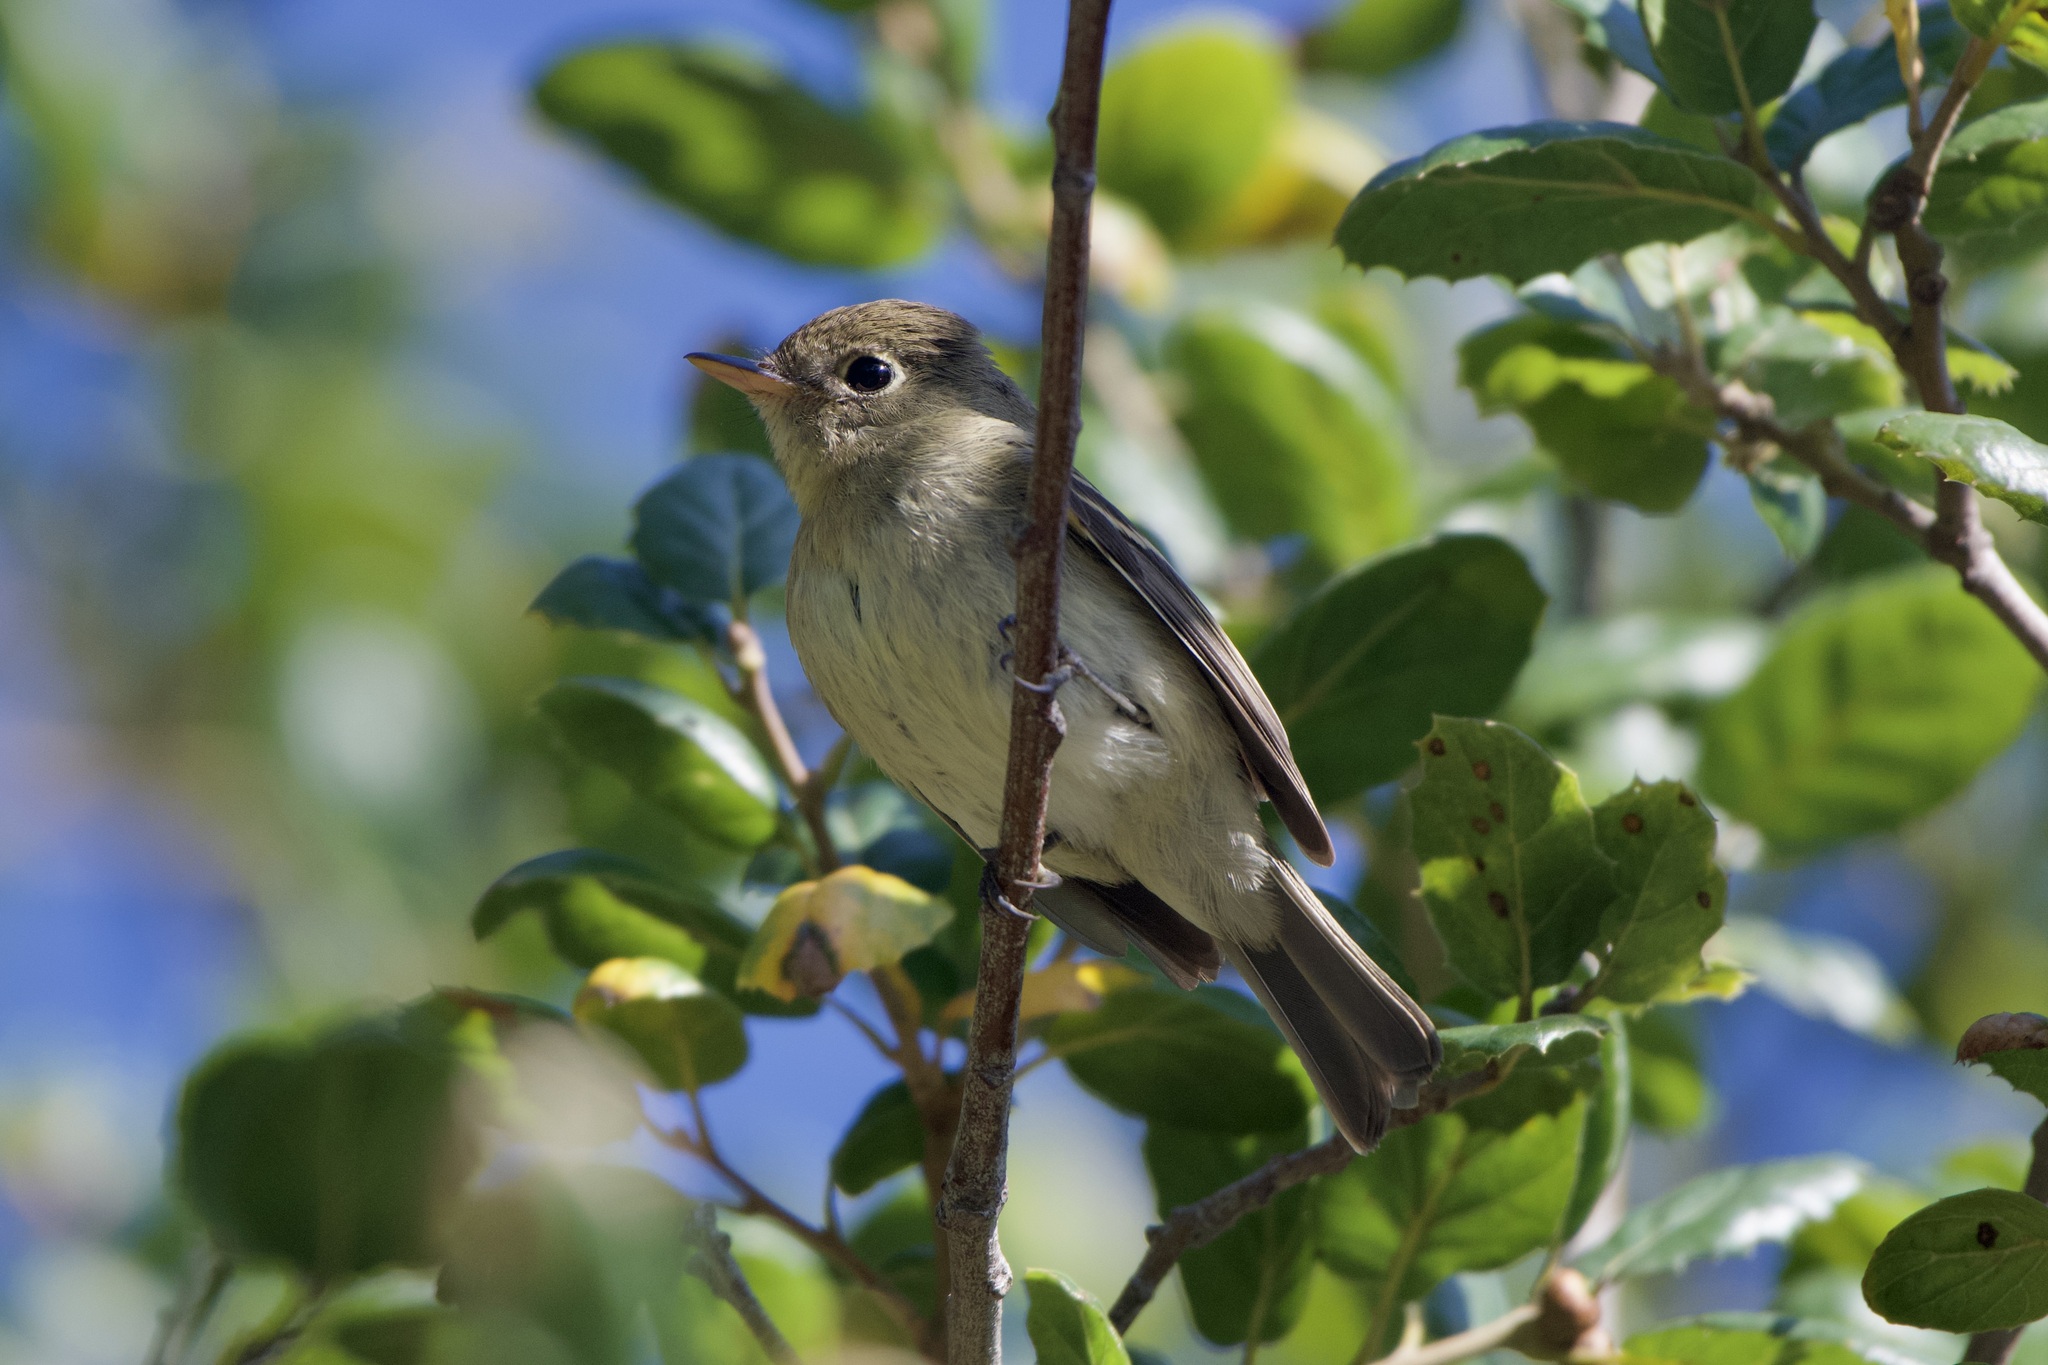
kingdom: Animalia
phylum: Chordata
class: Aves
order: Passeriformes
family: Tyrannidae
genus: Empidonax
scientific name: Empidonax difficilis
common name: Pacific-slope flycatcher
